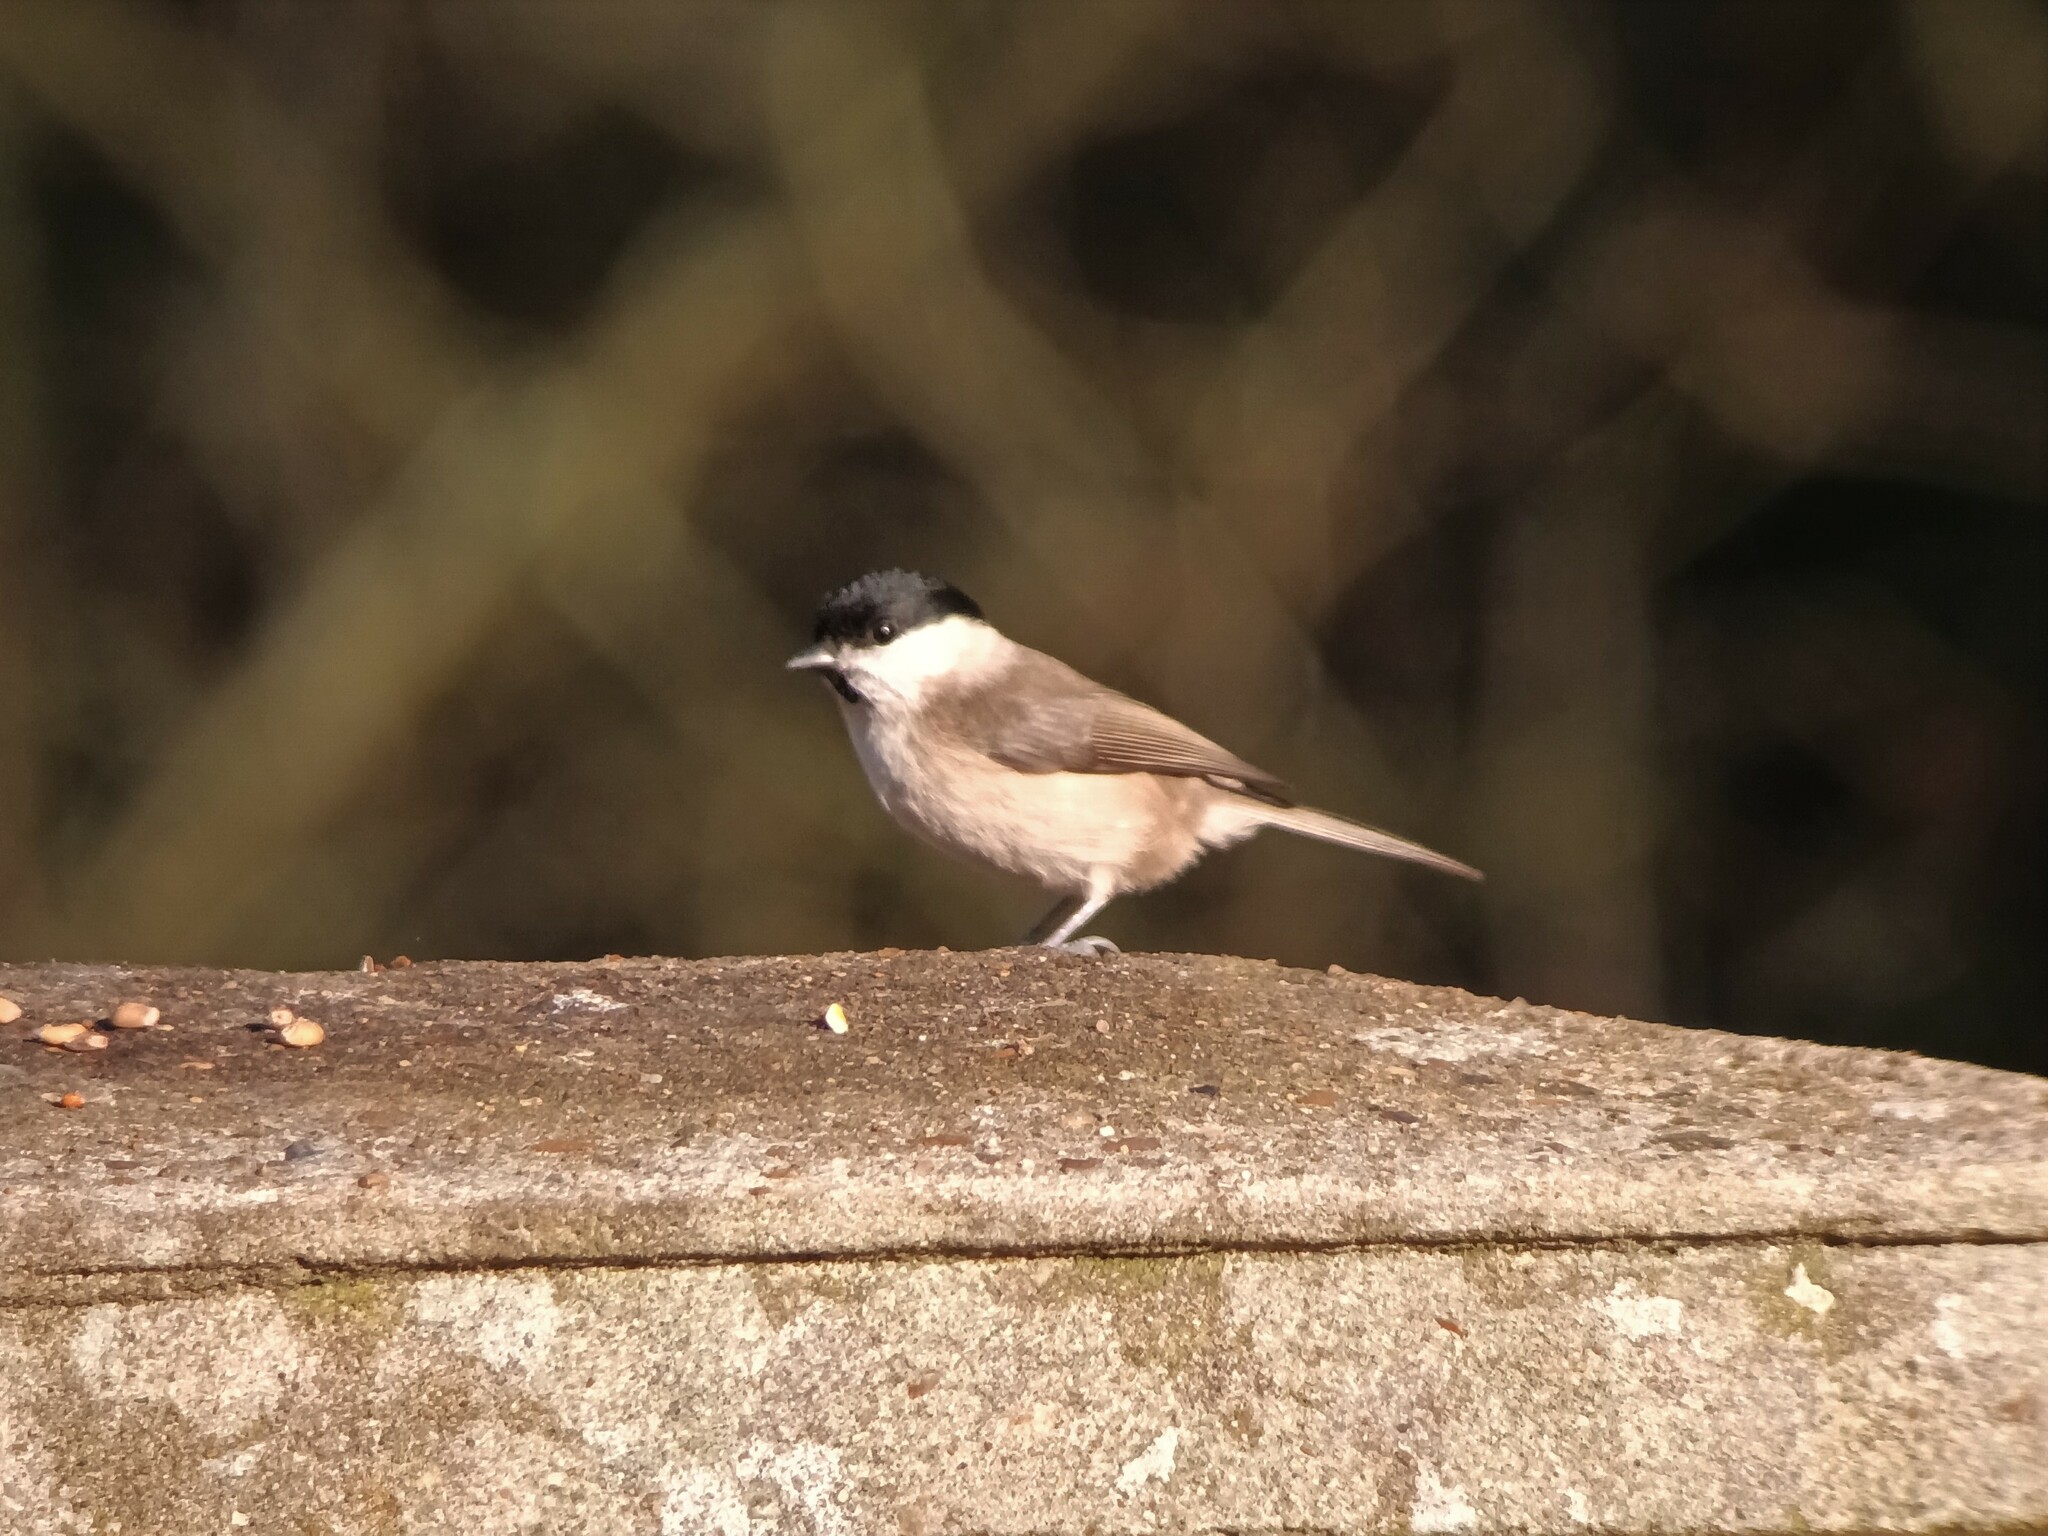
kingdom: Animalia
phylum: Chordata
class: Aves
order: Passeriformes
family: Paridae
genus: Poecile
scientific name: Poecile palustris
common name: Marsh tit
